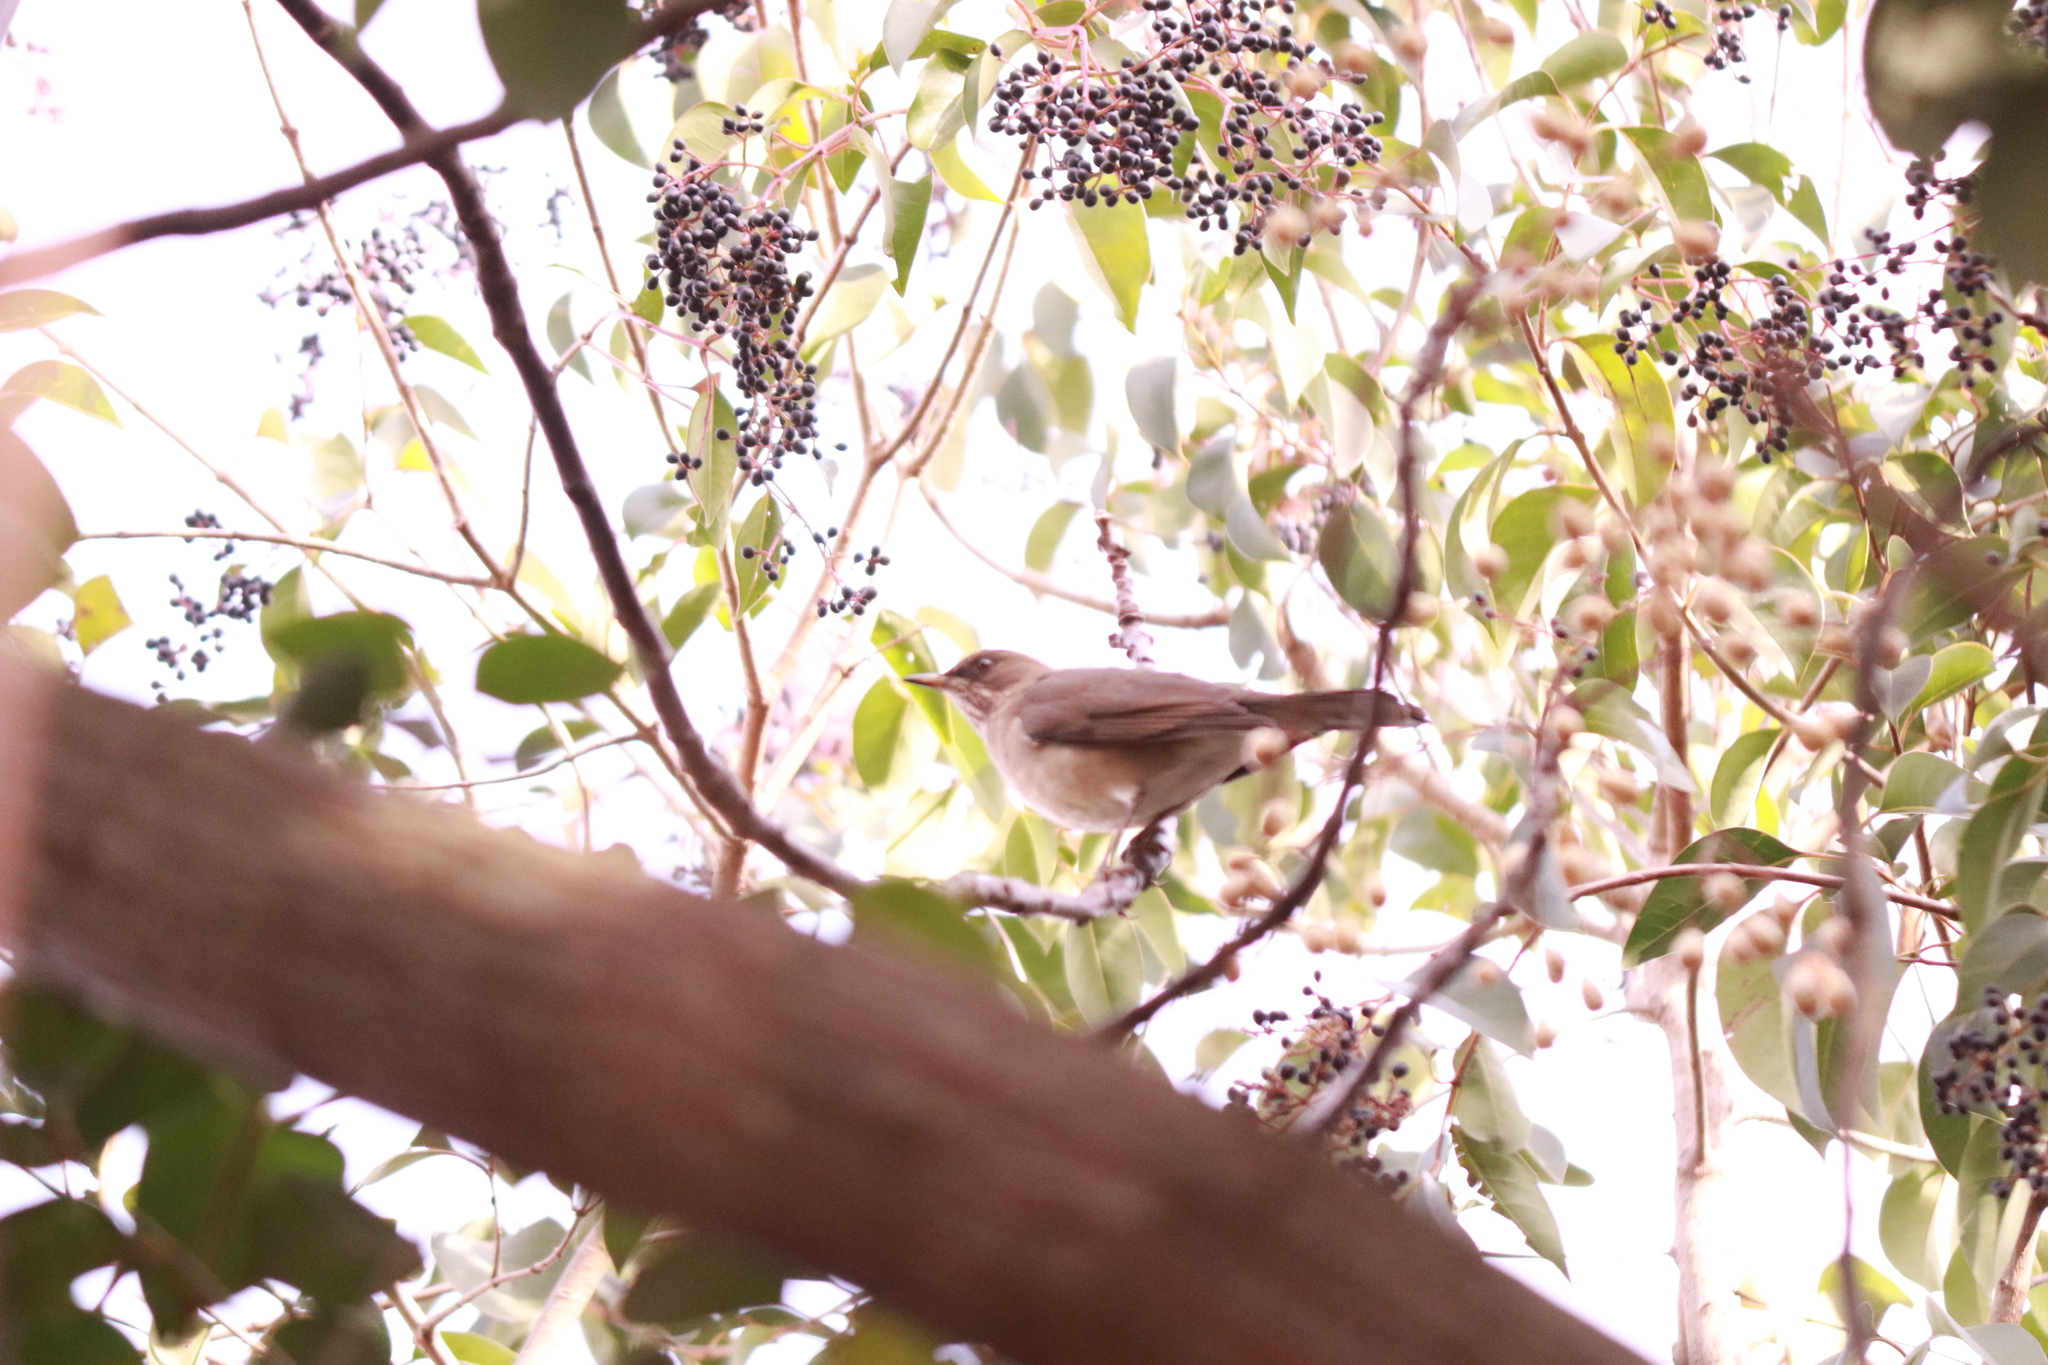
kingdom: Animalia
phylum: Chordata
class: Aves
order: Passeriformes
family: Turdidae
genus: Turdus
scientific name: Turdus amaurochalinus
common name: Creamy-bellied thrush
